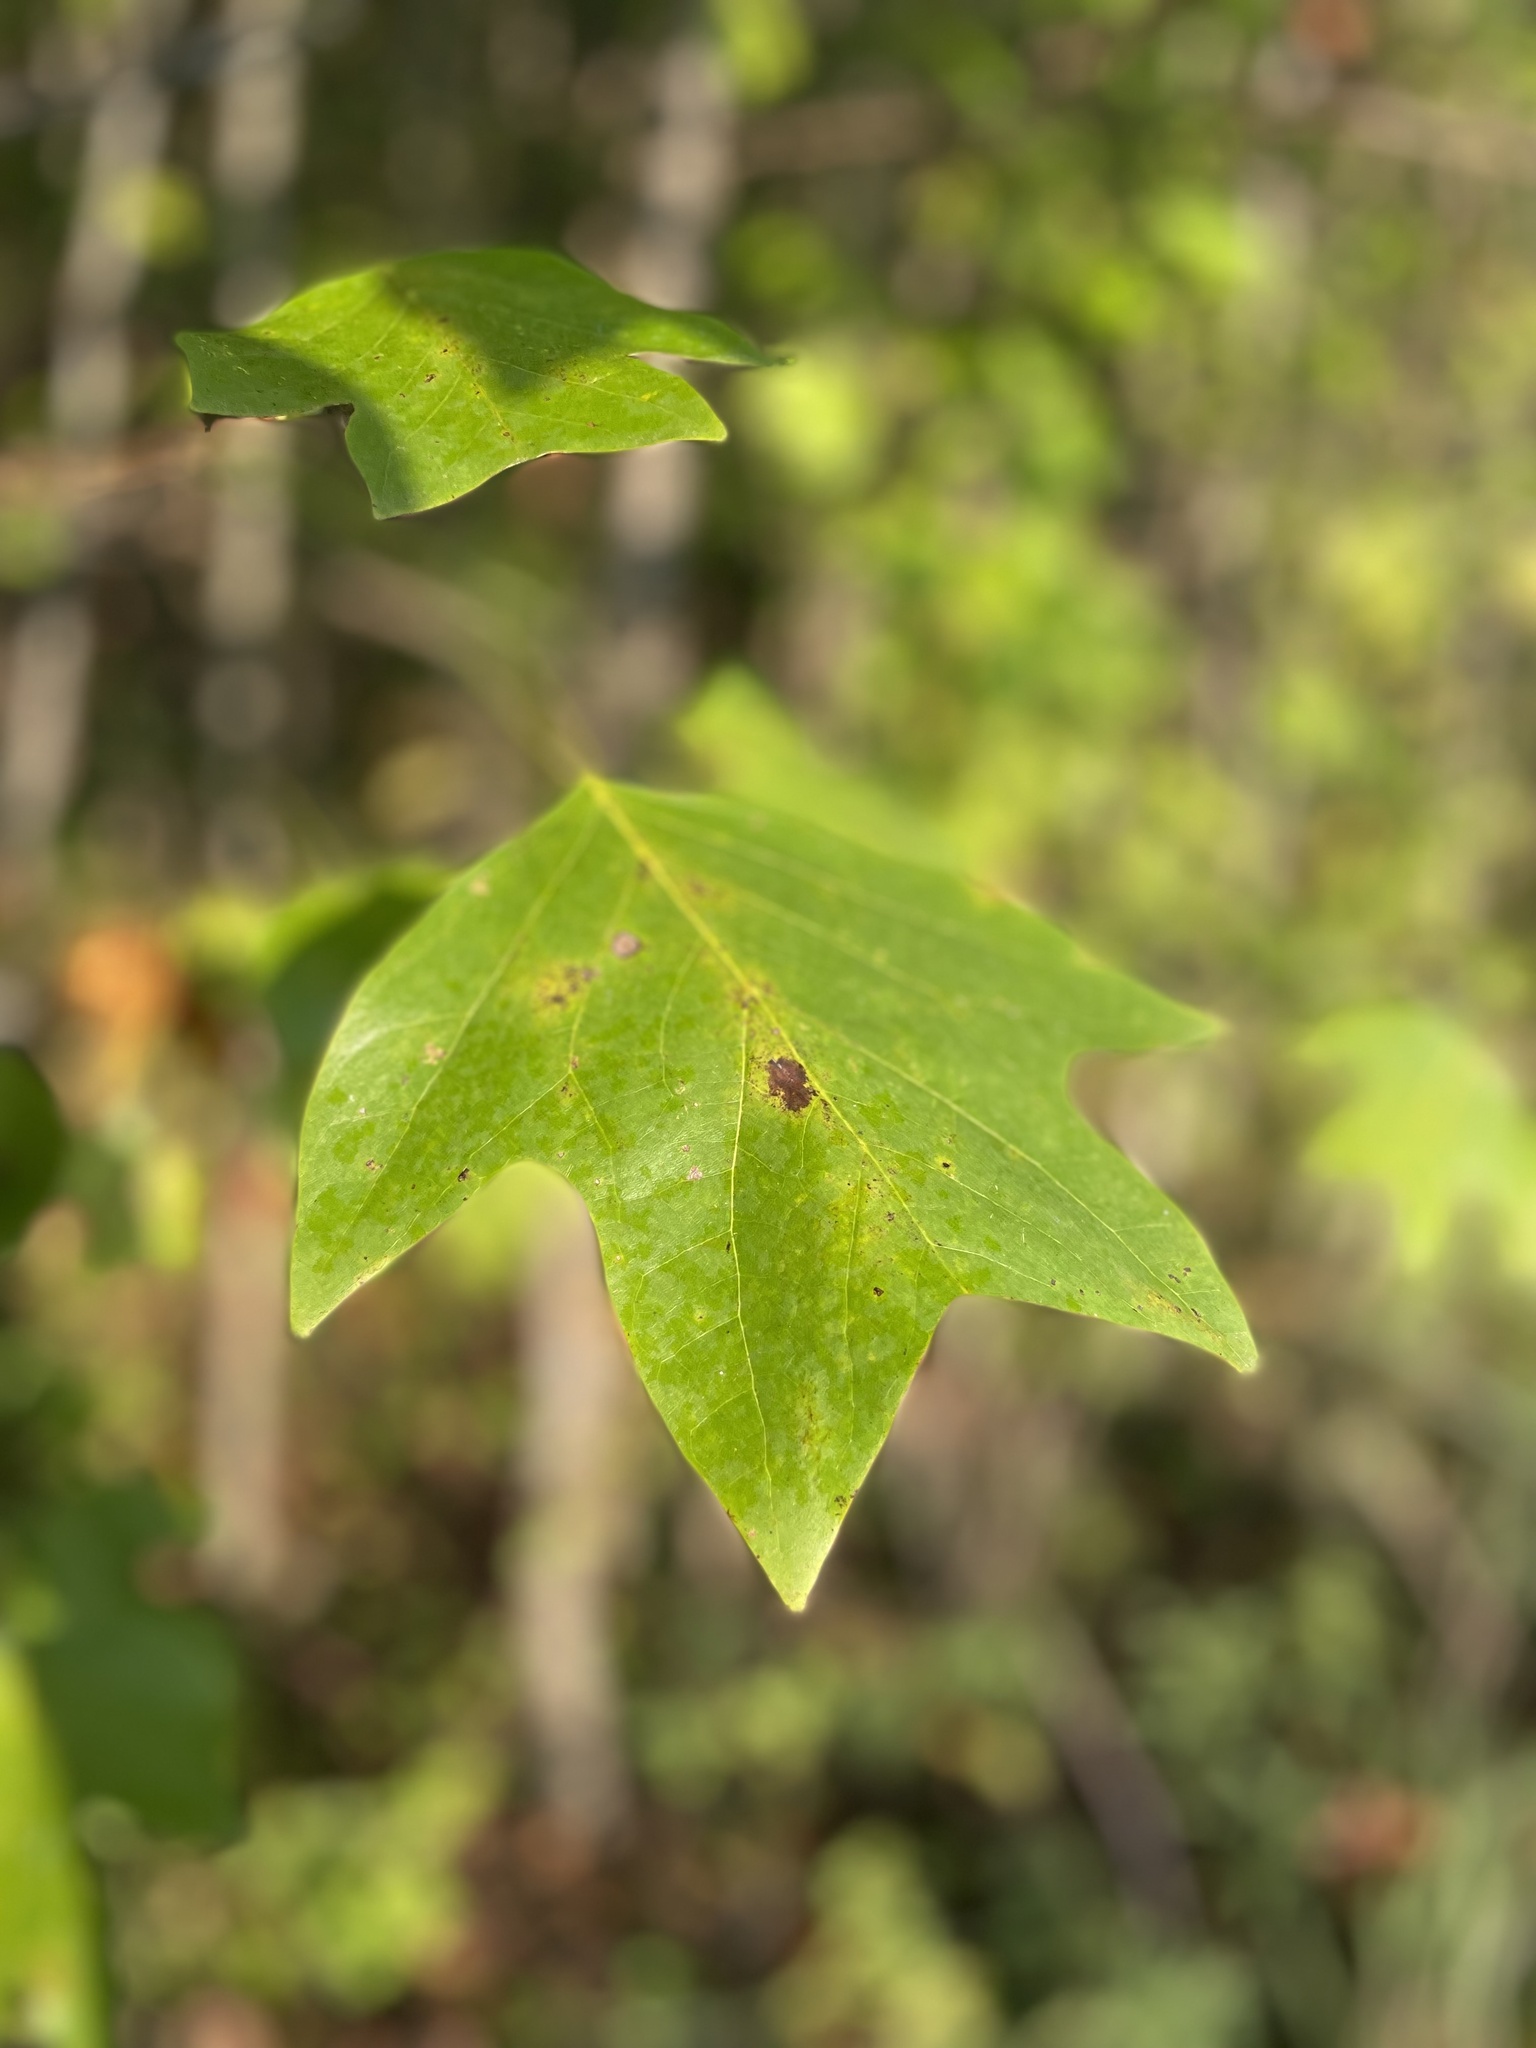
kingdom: Plantae
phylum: Tracheophyta
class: Magnoliopsida
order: Magnoliales
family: Magnoliaceae
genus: Liriodendron
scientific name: Liriodendron tulipifera
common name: Tulip tree
